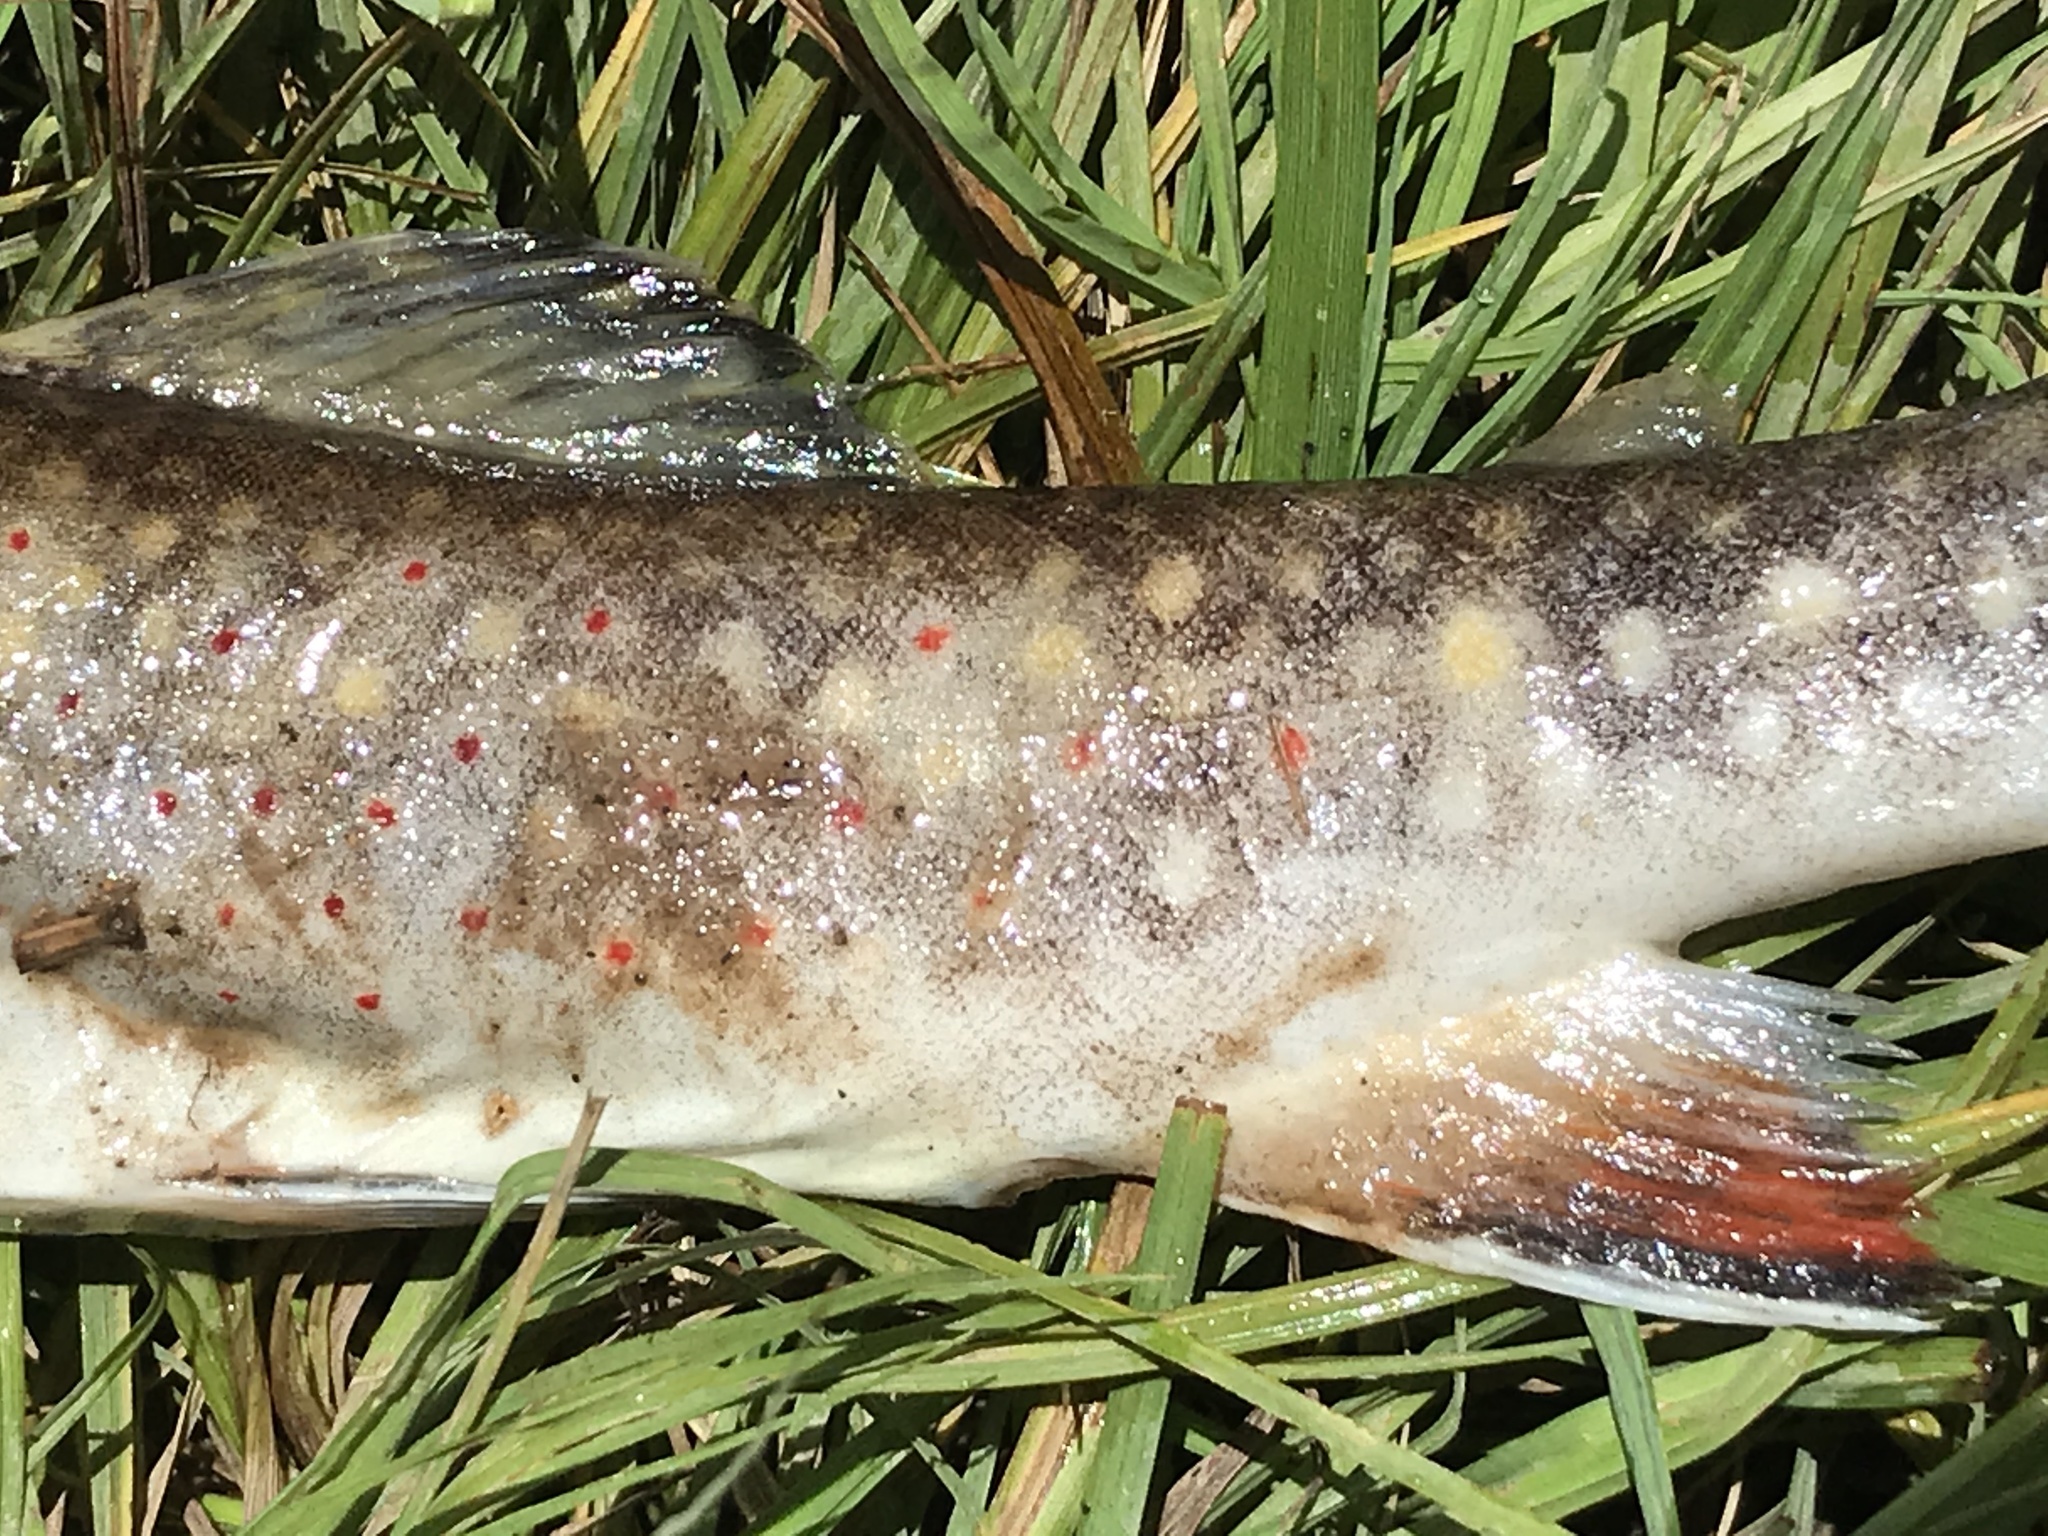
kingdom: Animalia
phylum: Chordata
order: Salmoniformes
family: Salmonidae
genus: Salvelinus
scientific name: Salvelinus fontinalis
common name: Brook trout
